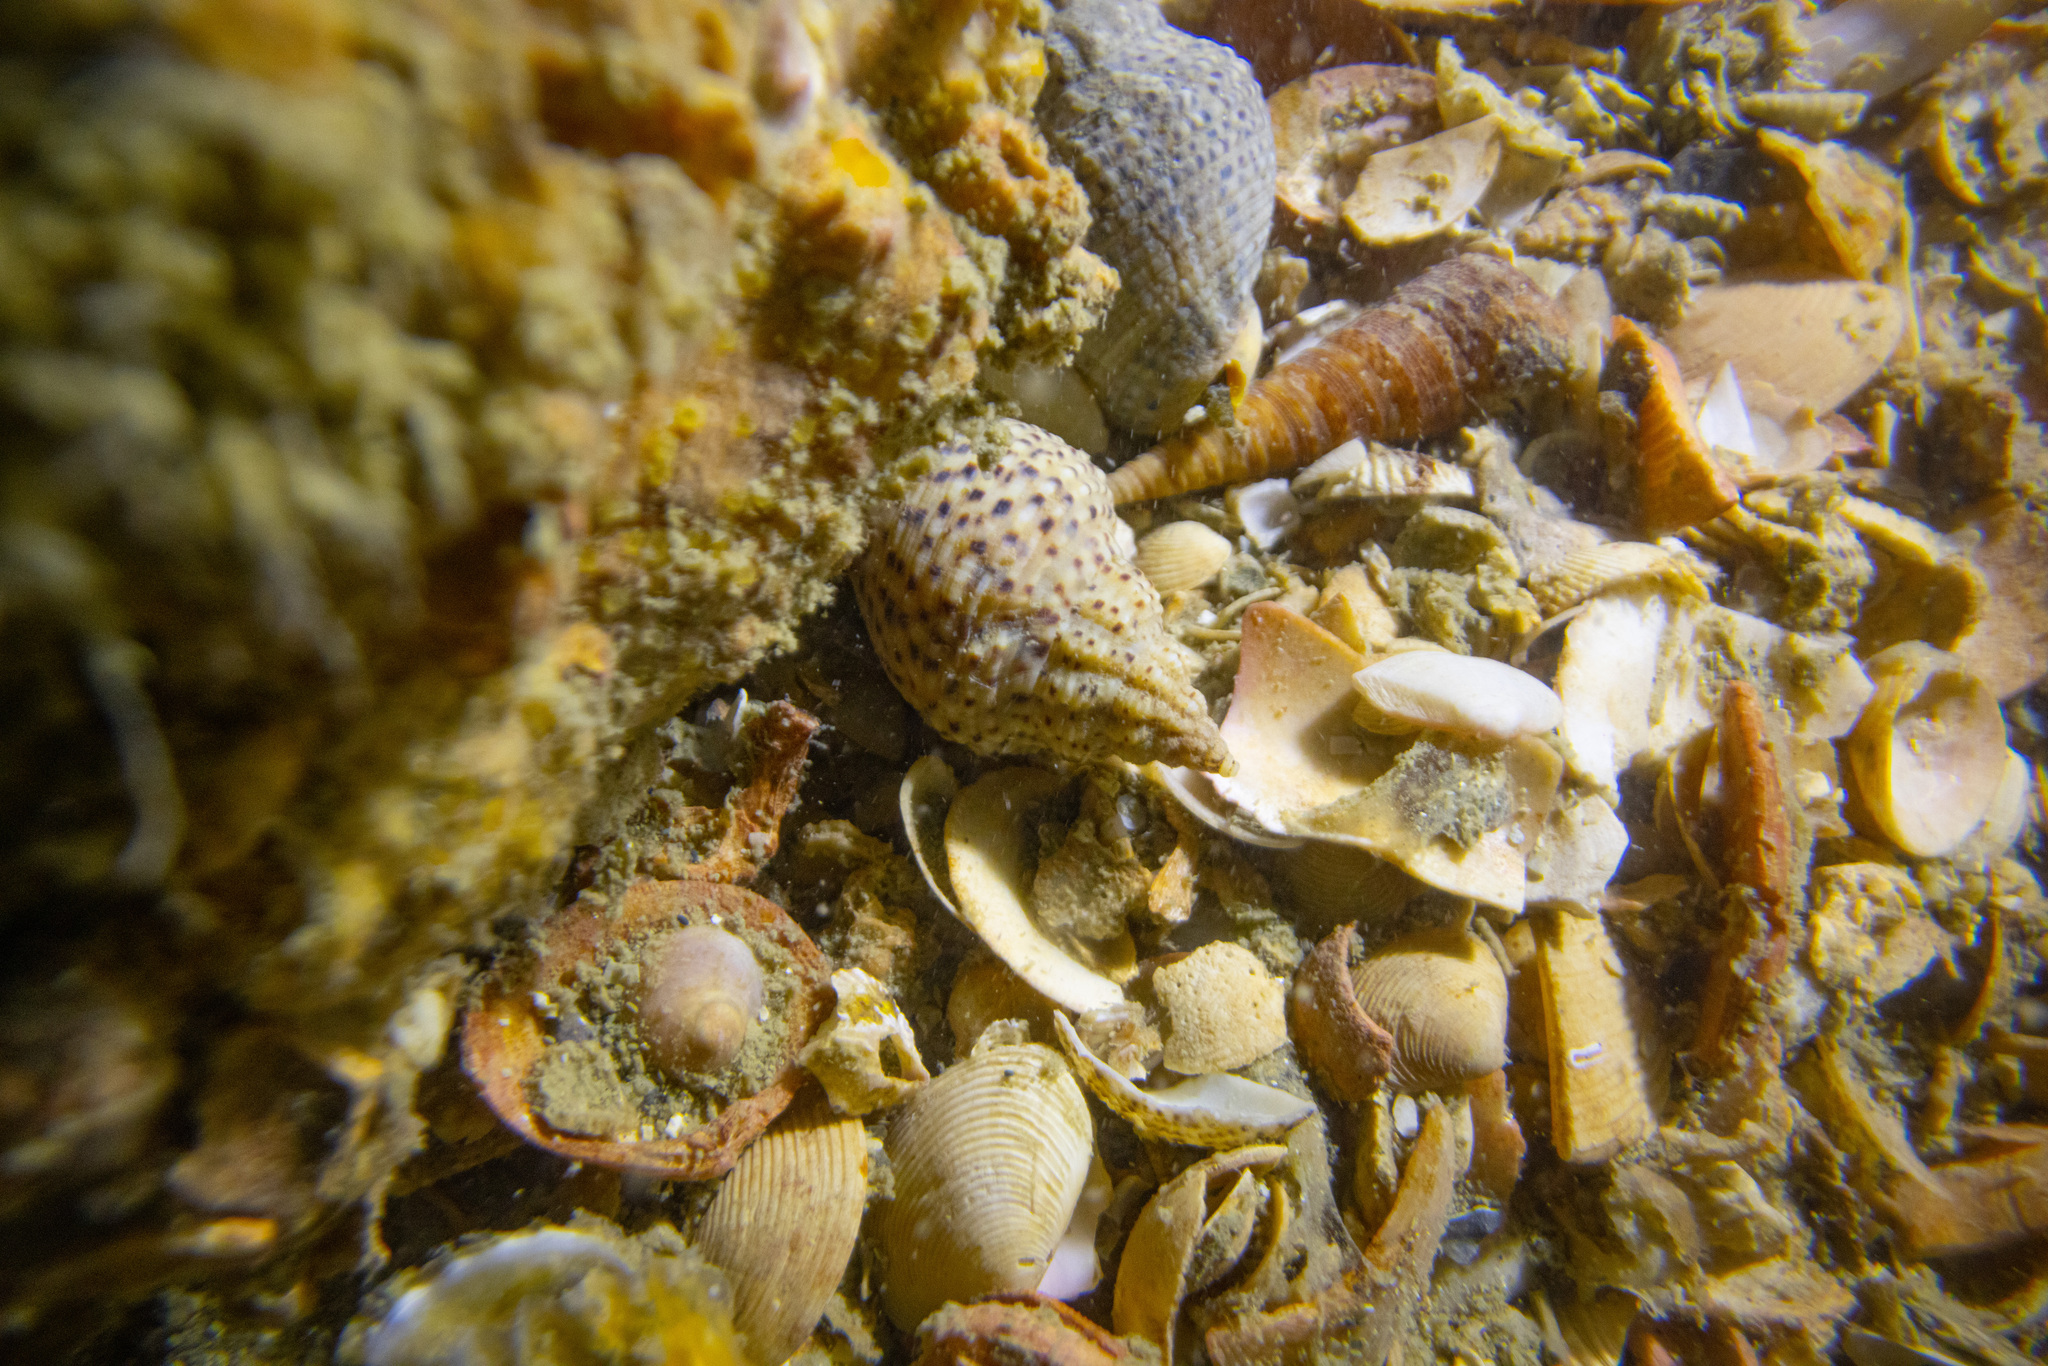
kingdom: Animalia
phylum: Mollusca
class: Gastropoda
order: Neogastropoda
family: Cominellidae
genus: Cominella
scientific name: Cominella adspersa
